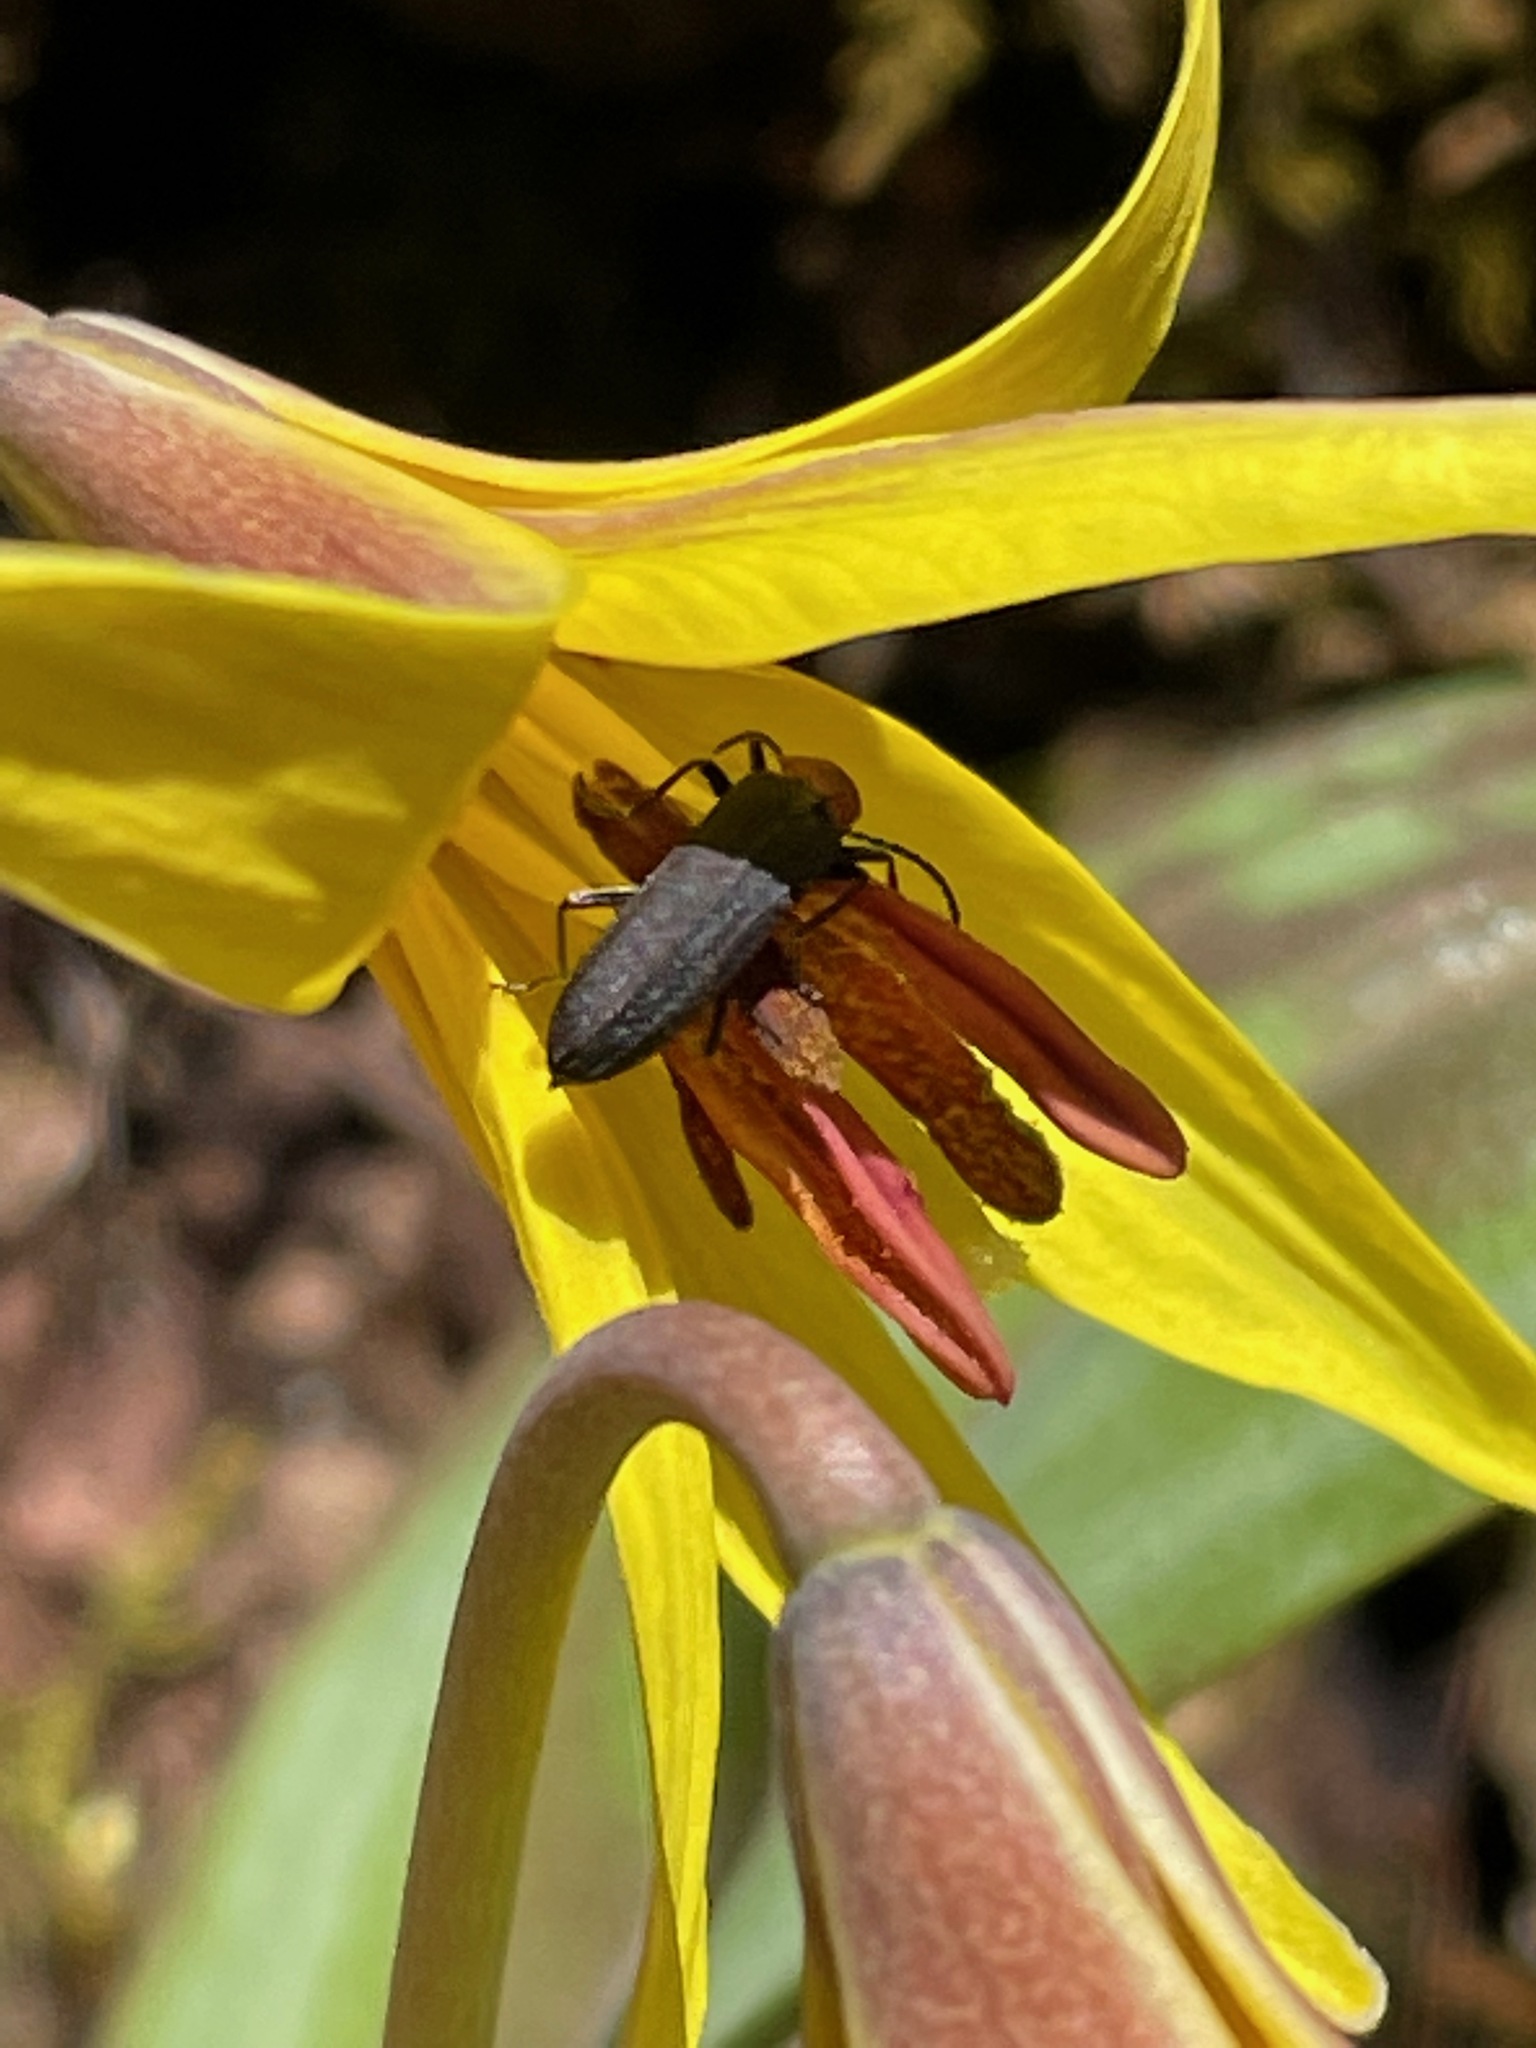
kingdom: Plantae
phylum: Tracheophyta
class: Liliopsida
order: Liliales
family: Liliaceae
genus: Erythronium
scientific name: Erythronium americanum
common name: Yellow adder's-tongue
